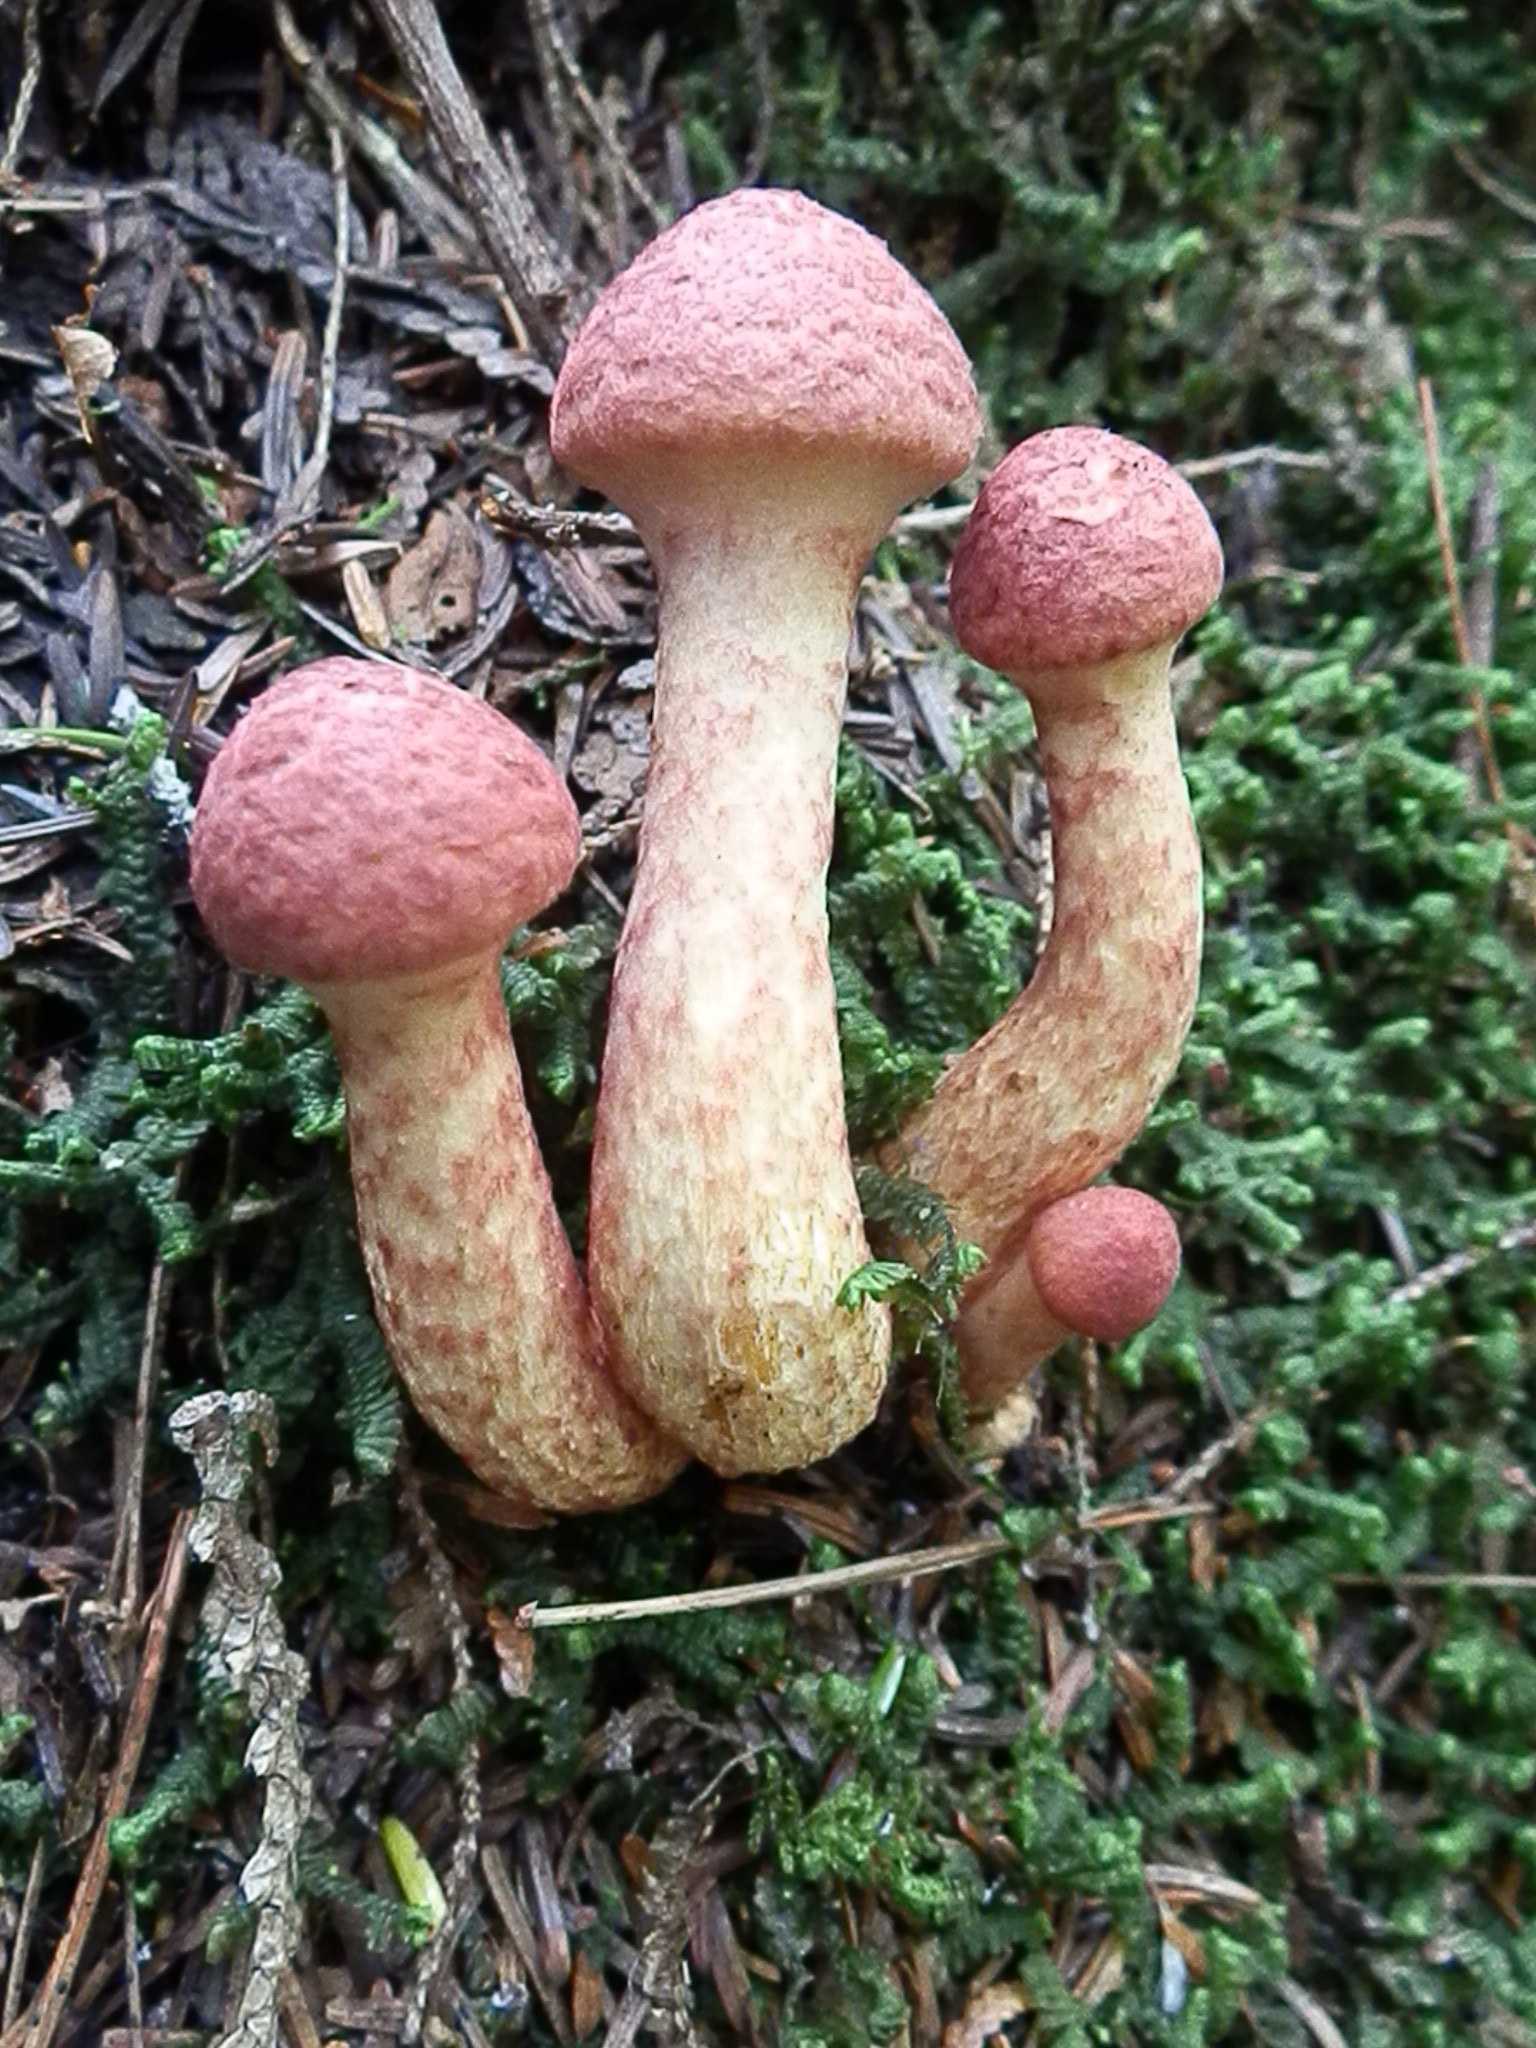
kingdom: Fungi
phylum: Basidiomycota
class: Agaricomycetes
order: Boletales
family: Suillaceae
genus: Suillus
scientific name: Suillus spraguei
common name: Painted suillus
